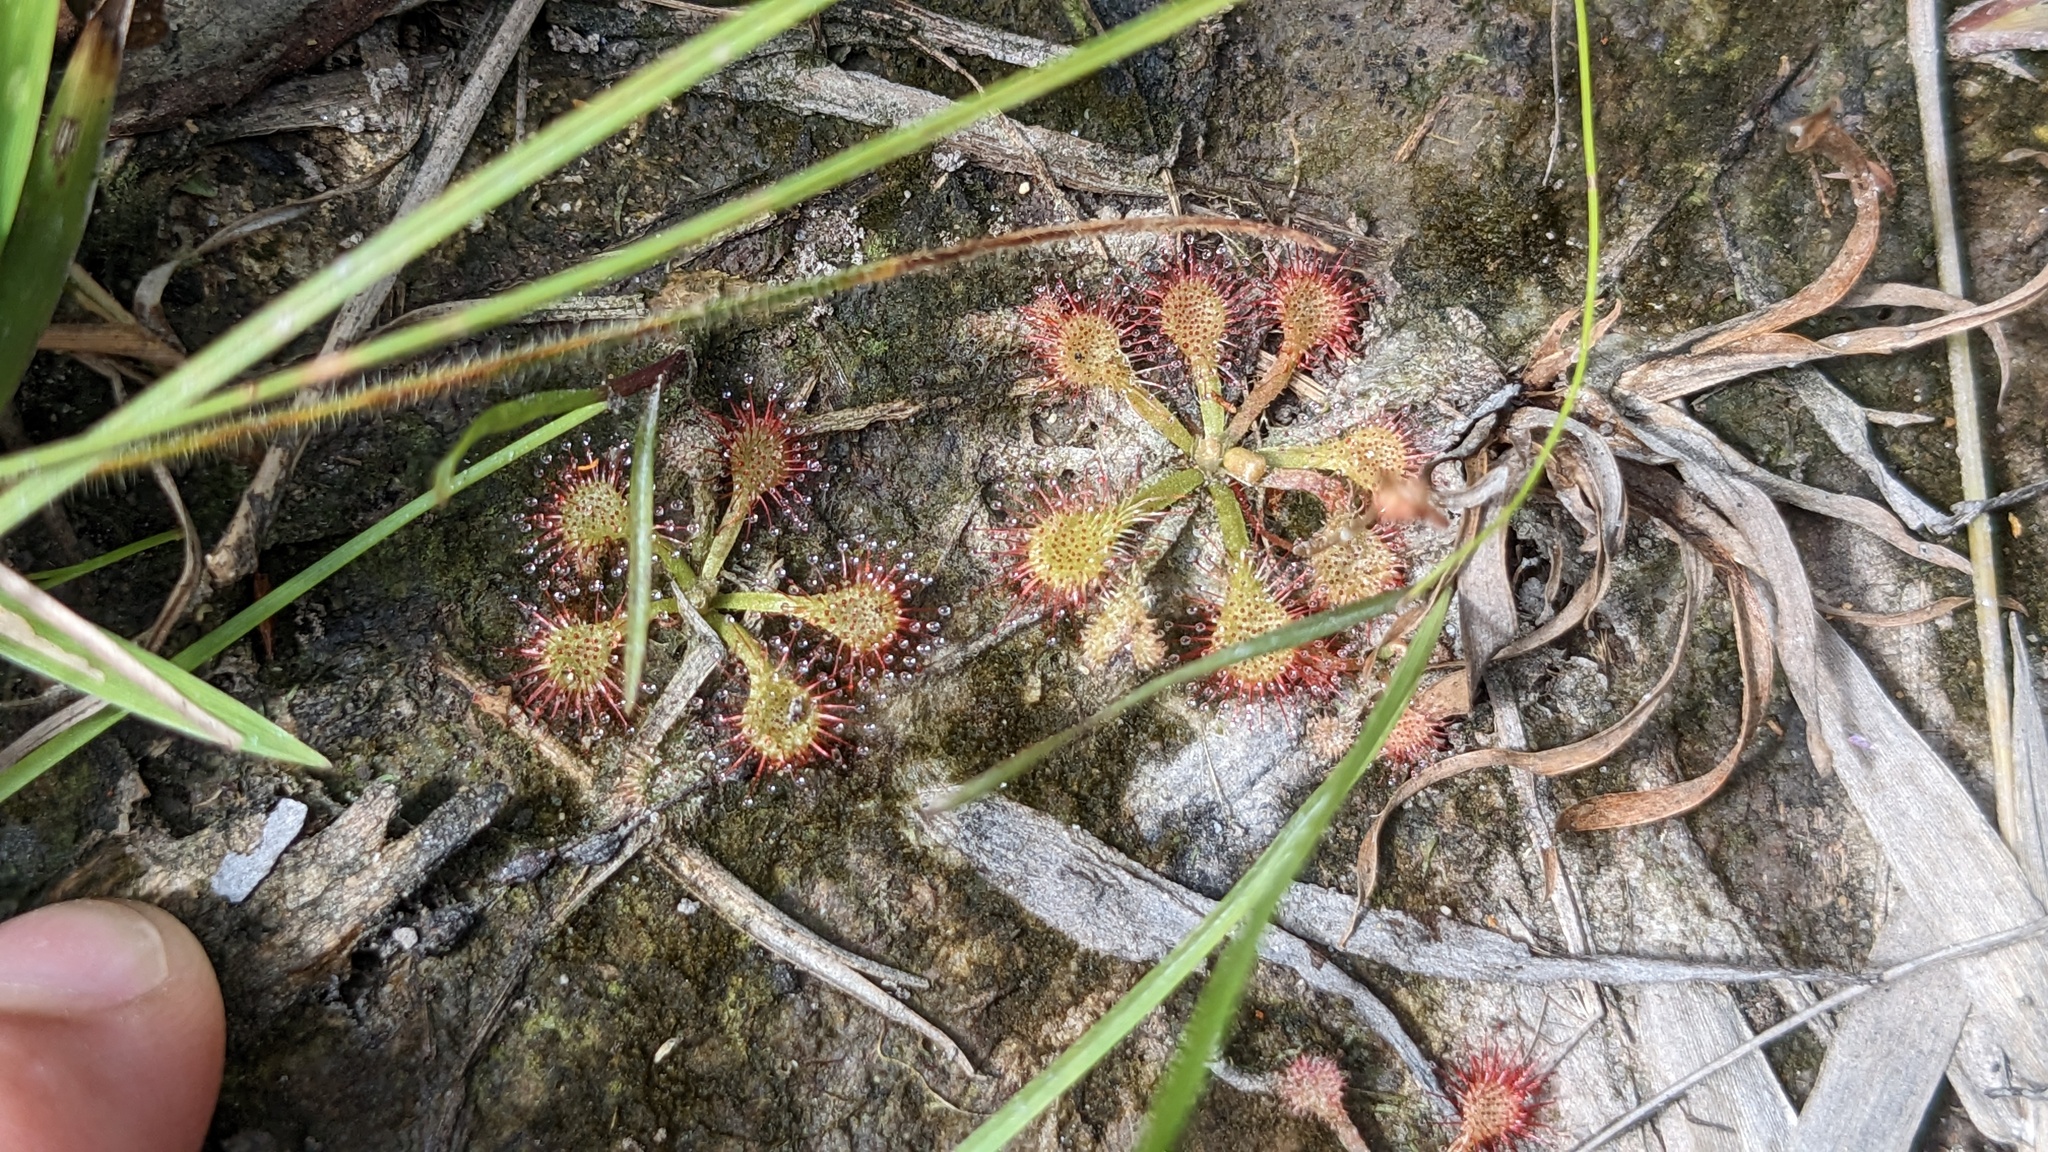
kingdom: Plantae
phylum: Tracheophyta
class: Magnoliopsida
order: Caryophyllales
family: Droseraceae
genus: Drosera
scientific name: Drosera capillaris
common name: Pink sundew
